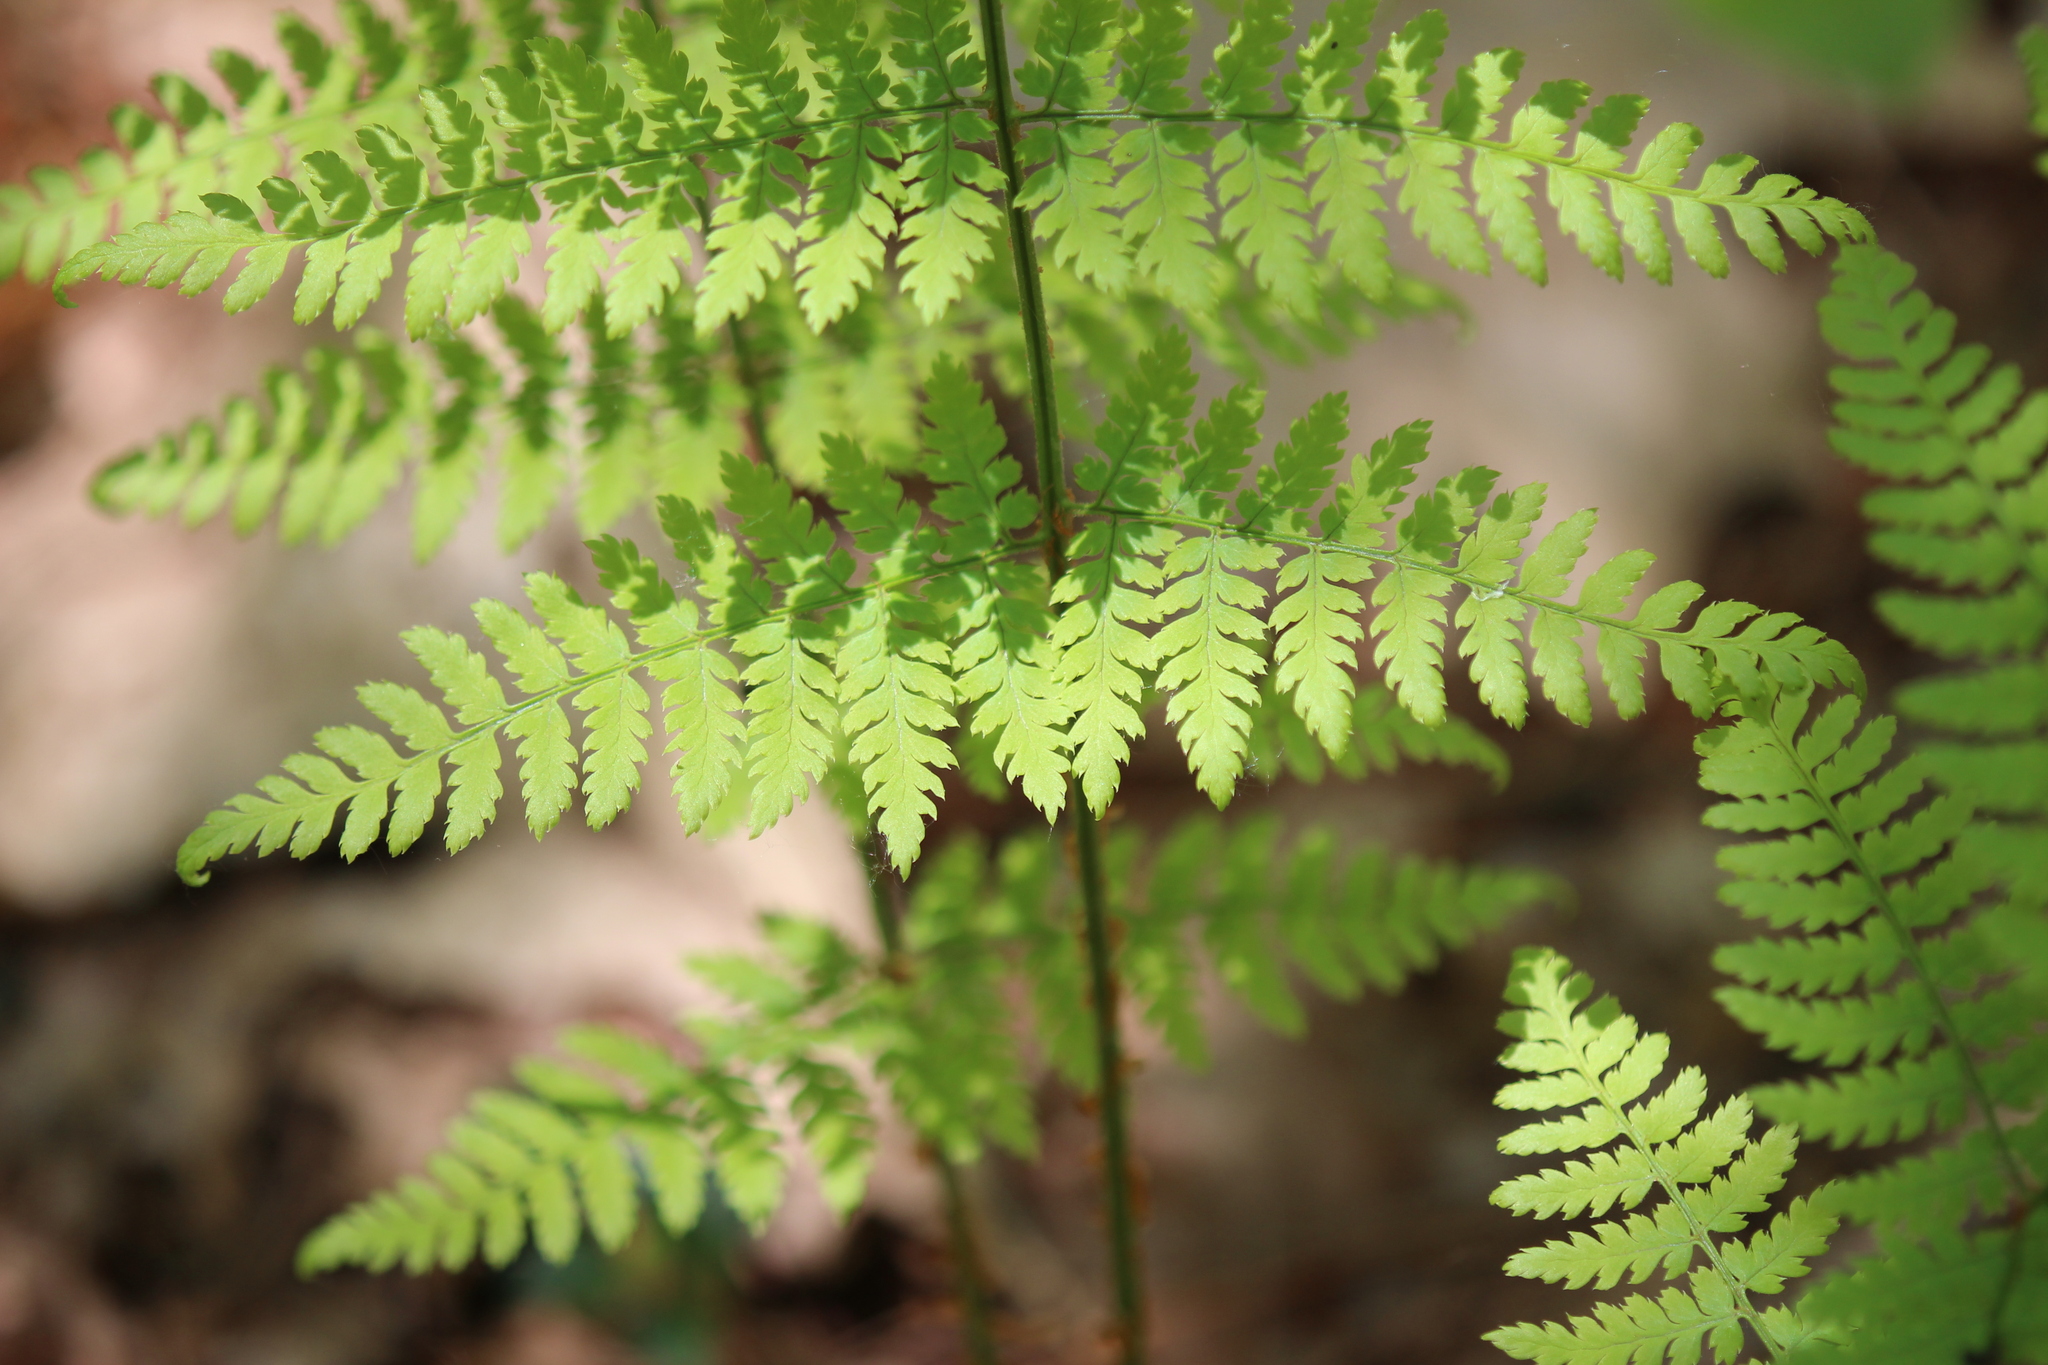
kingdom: Plantae
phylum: Tracheophyta
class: Polypodiopsida
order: Polypodiales
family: Dryopteridaceae
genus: Dryopteris
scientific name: Dryopteris intermedia
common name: Evergreen wood fern
